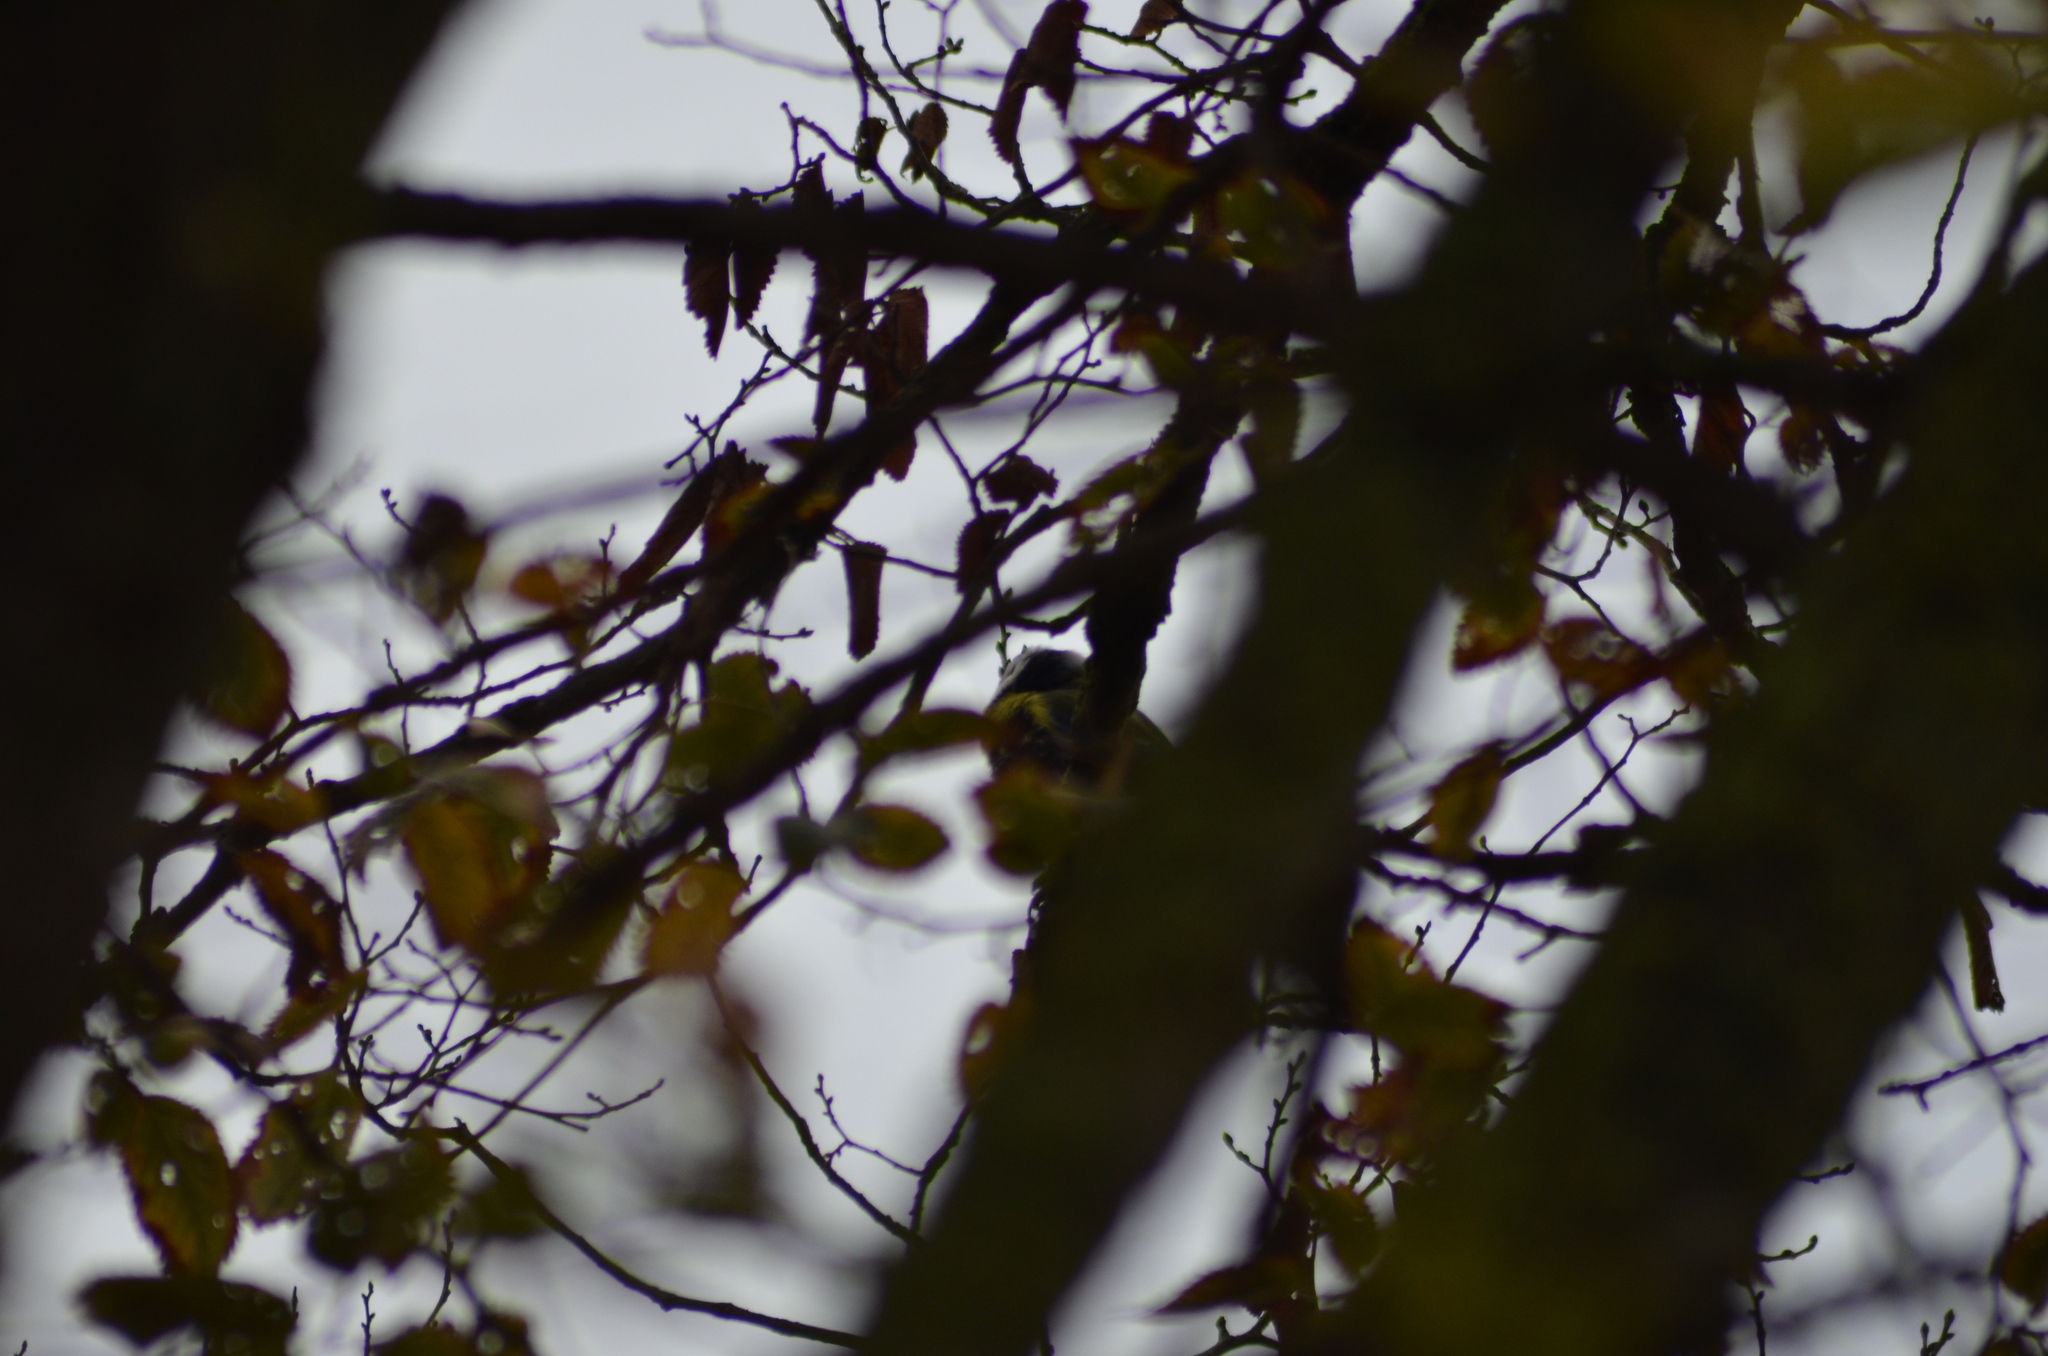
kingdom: Animalia
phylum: Chordata
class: Aves
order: Passeriformes
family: Paridae
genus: Cyanistes
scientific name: Cyanistes caeruleus
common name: Eurasian blue tit
